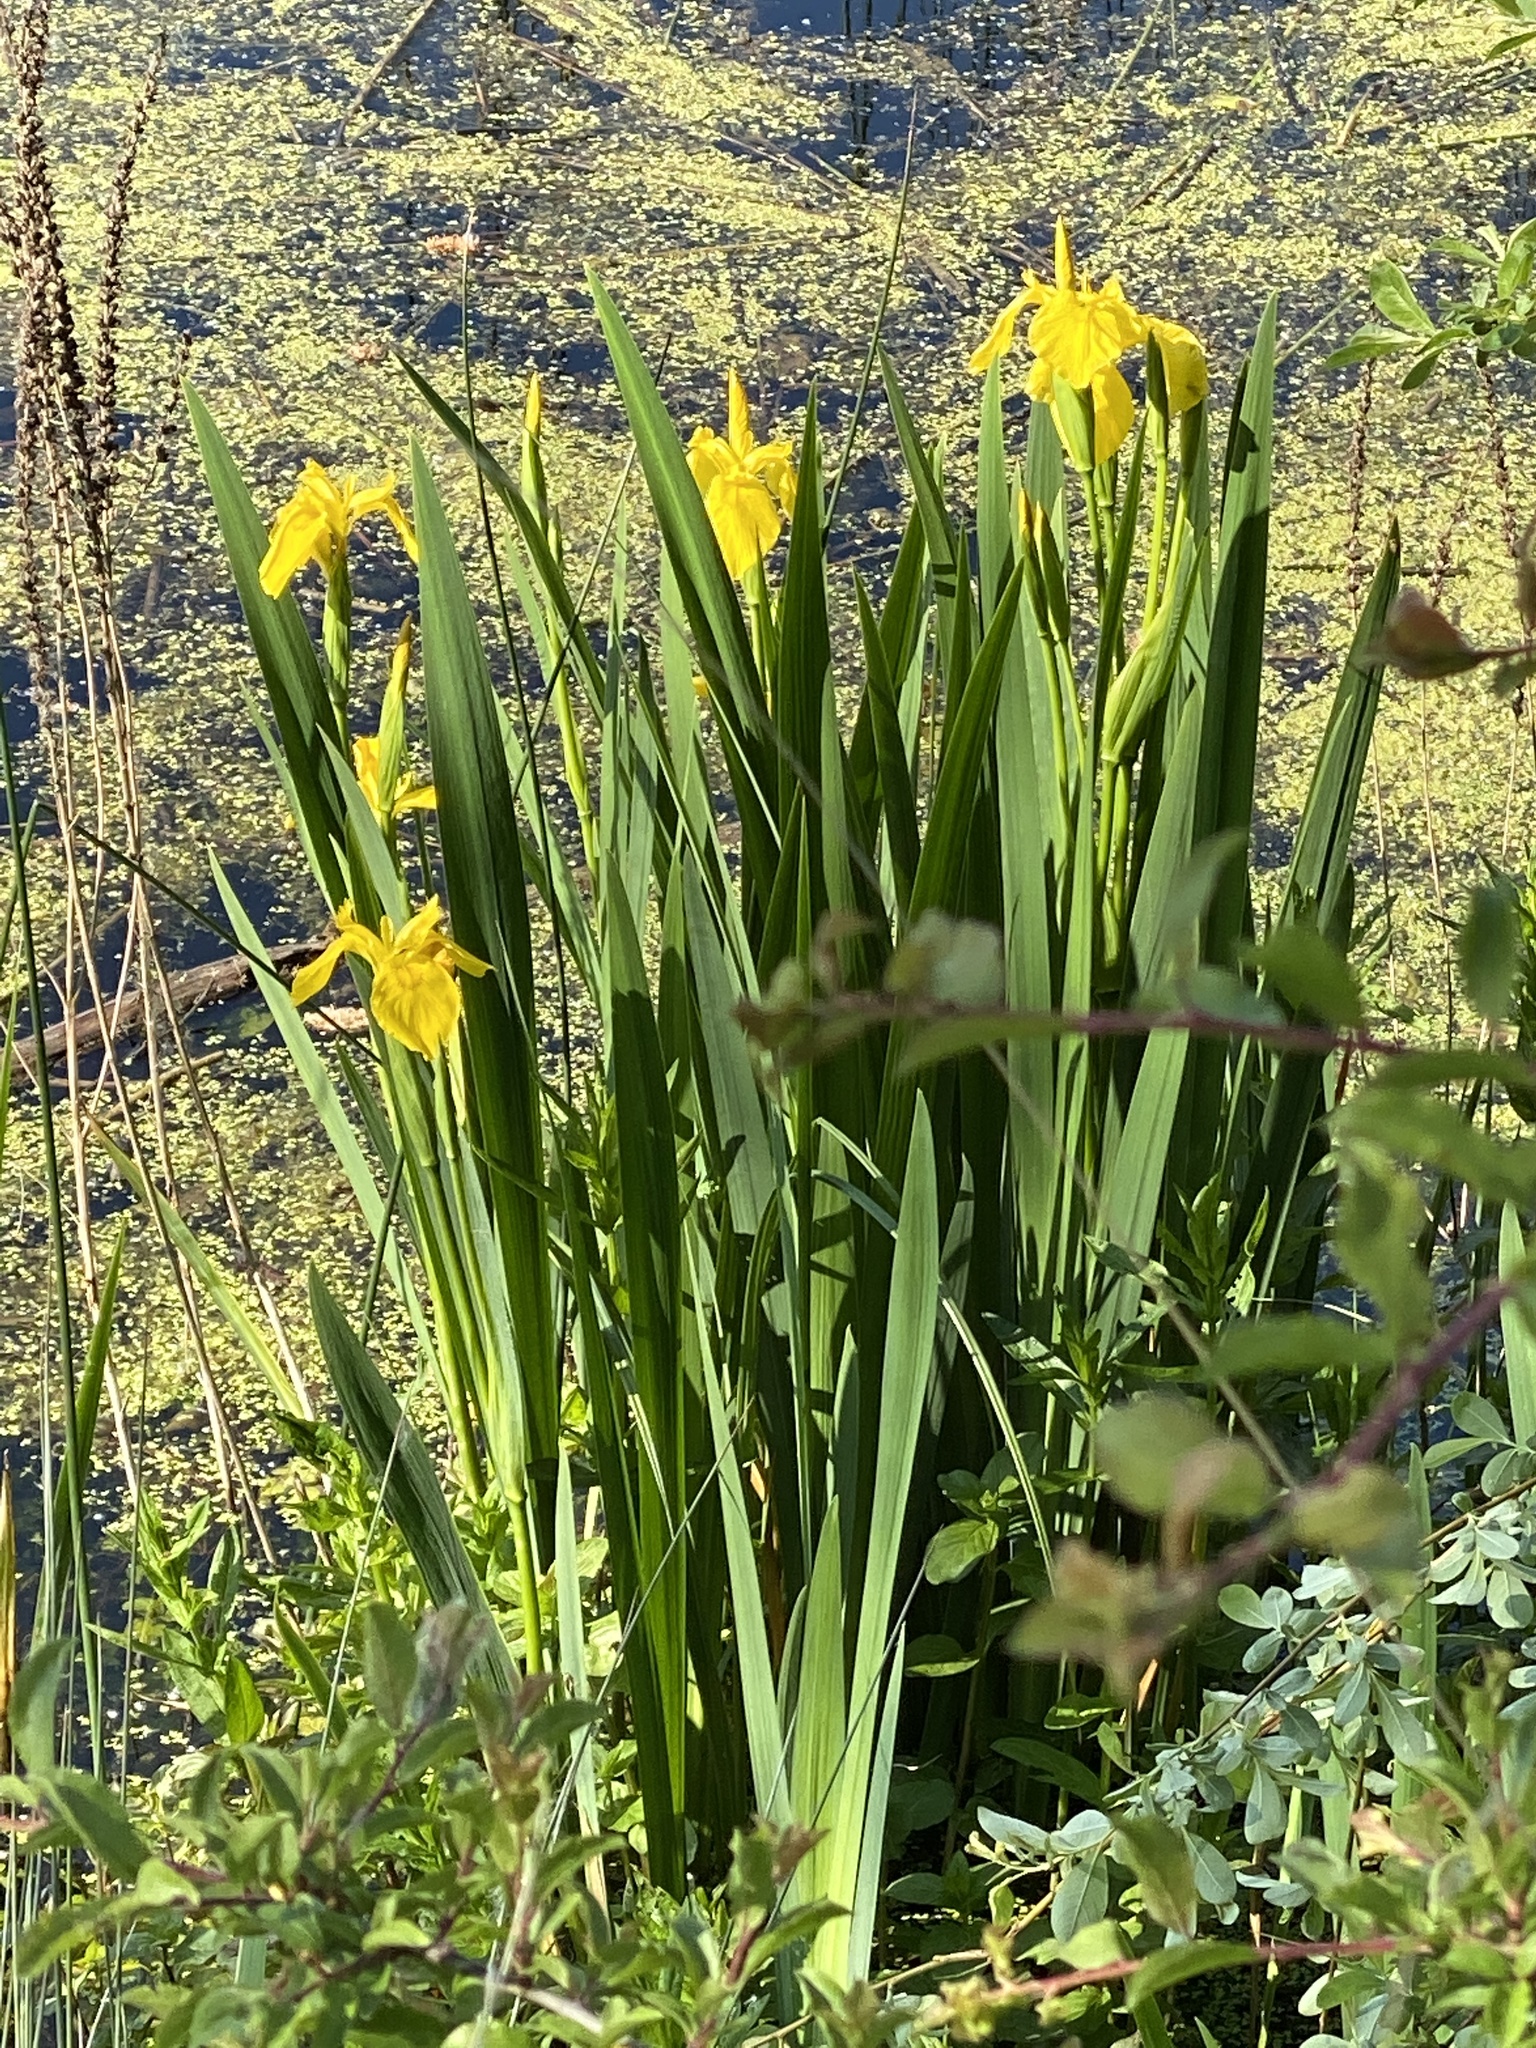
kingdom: Plantae
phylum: Tracheophyta
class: Liliopsida
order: Asparagales
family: Iridaceae
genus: Iris
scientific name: Iris pseudacorus
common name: Yellow flag
